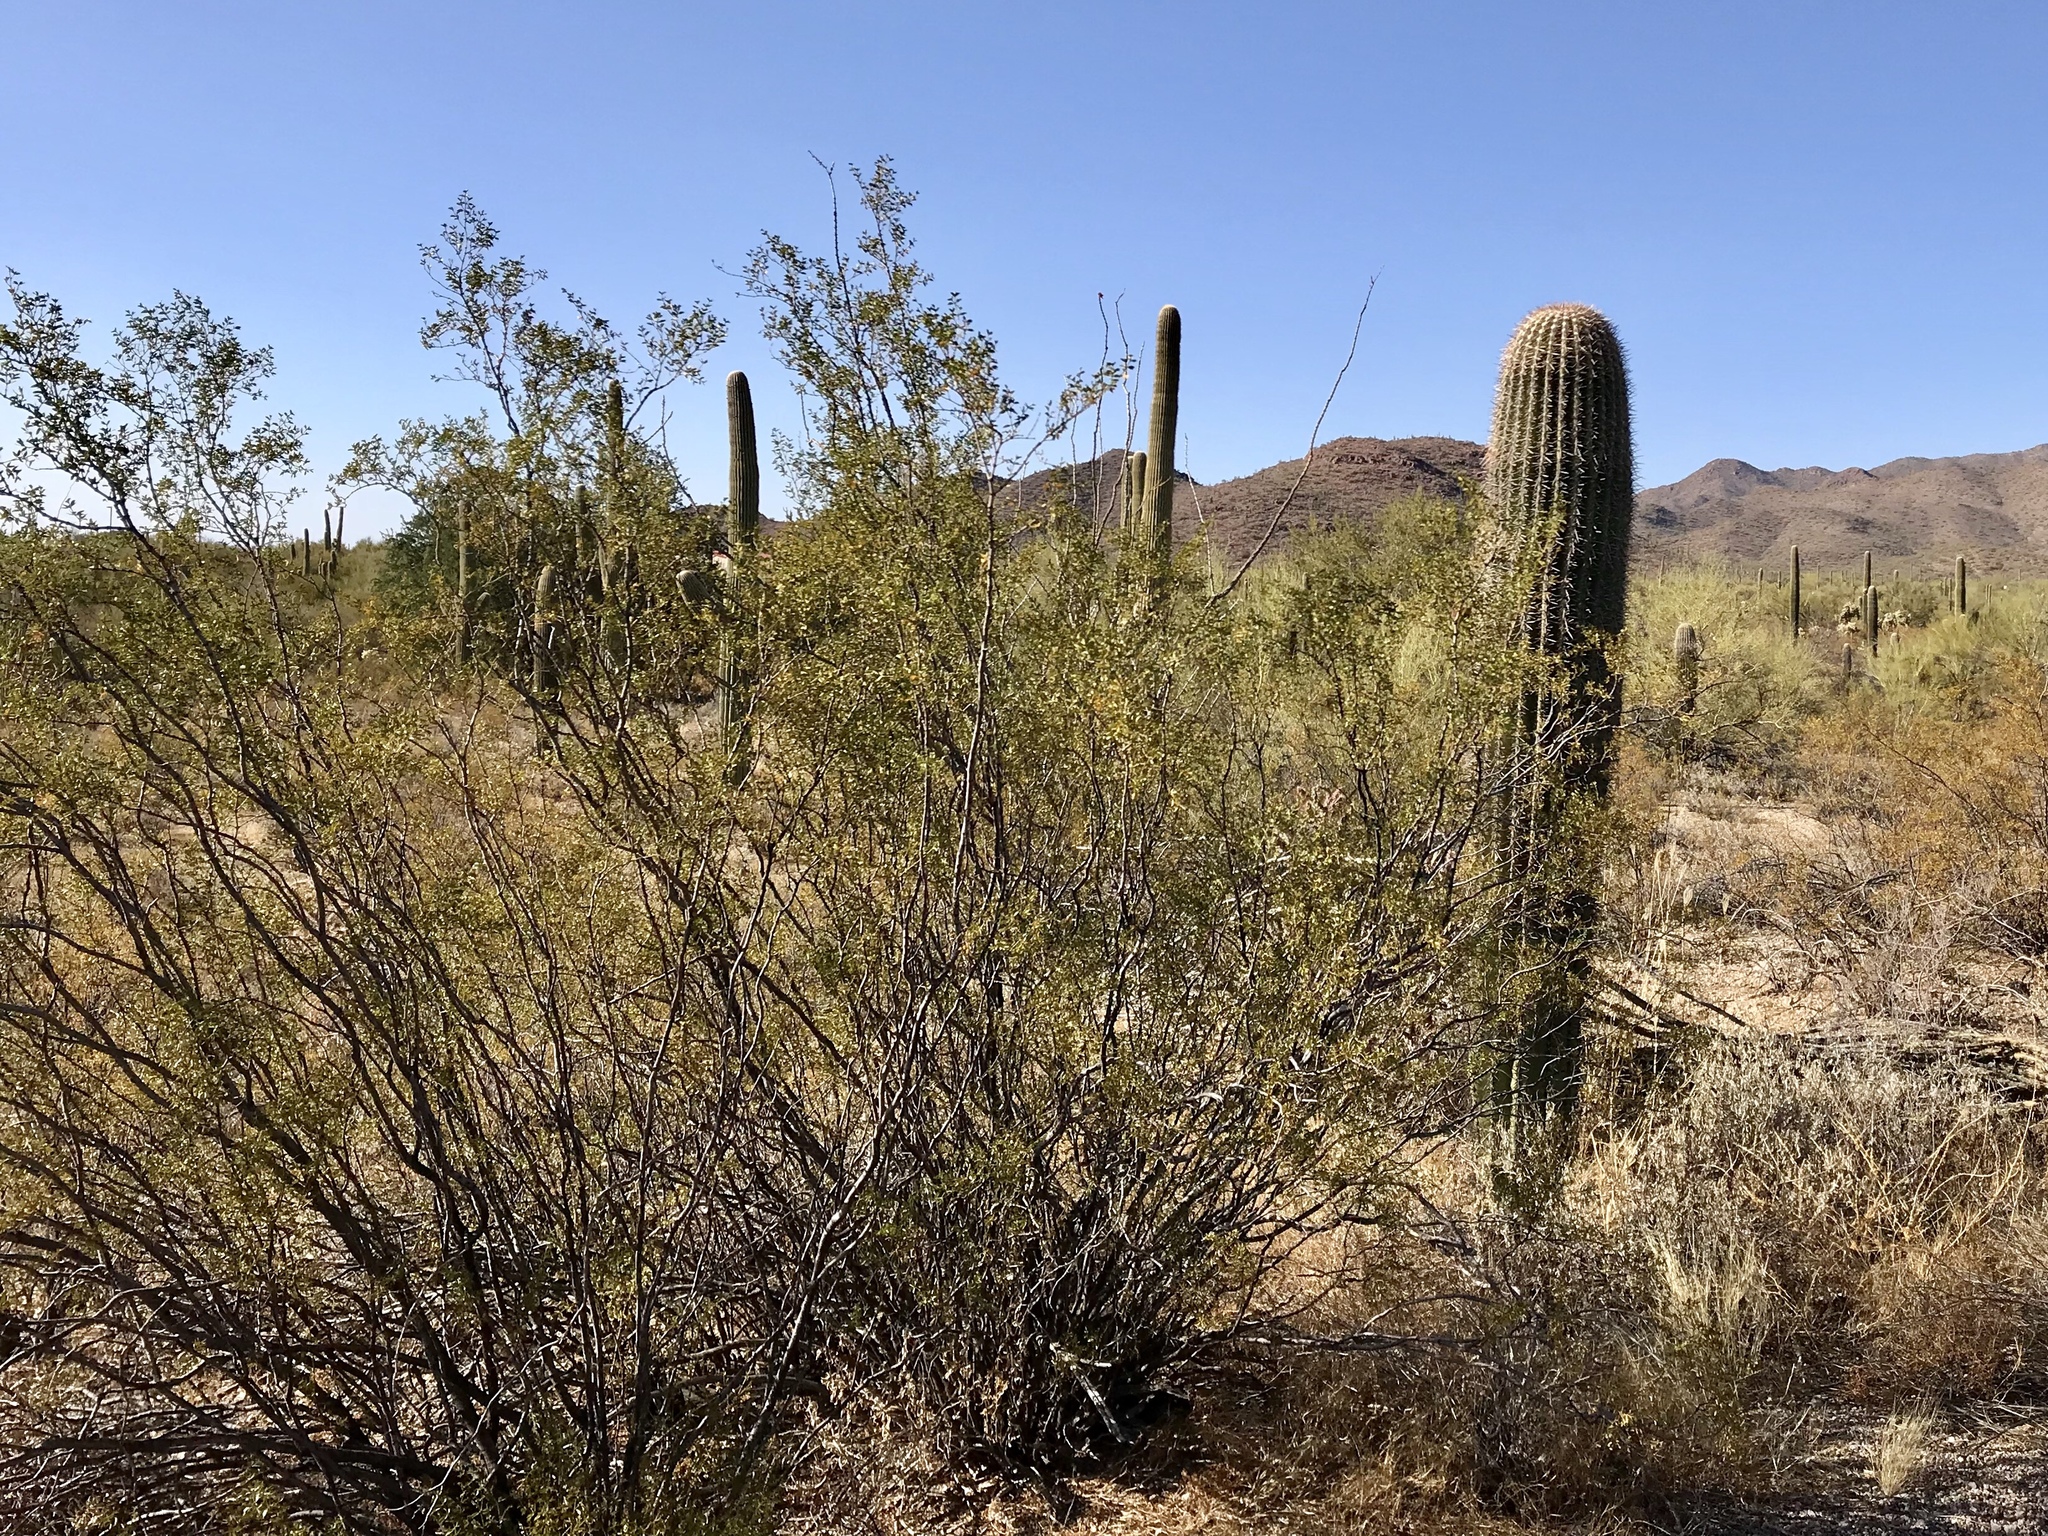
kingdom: Plantae
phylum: Tracheophyta
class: Magnoliopsida
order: Zygophyllales
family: Zygophyllaceae
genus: Larrea
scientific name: Larrea tridentata
